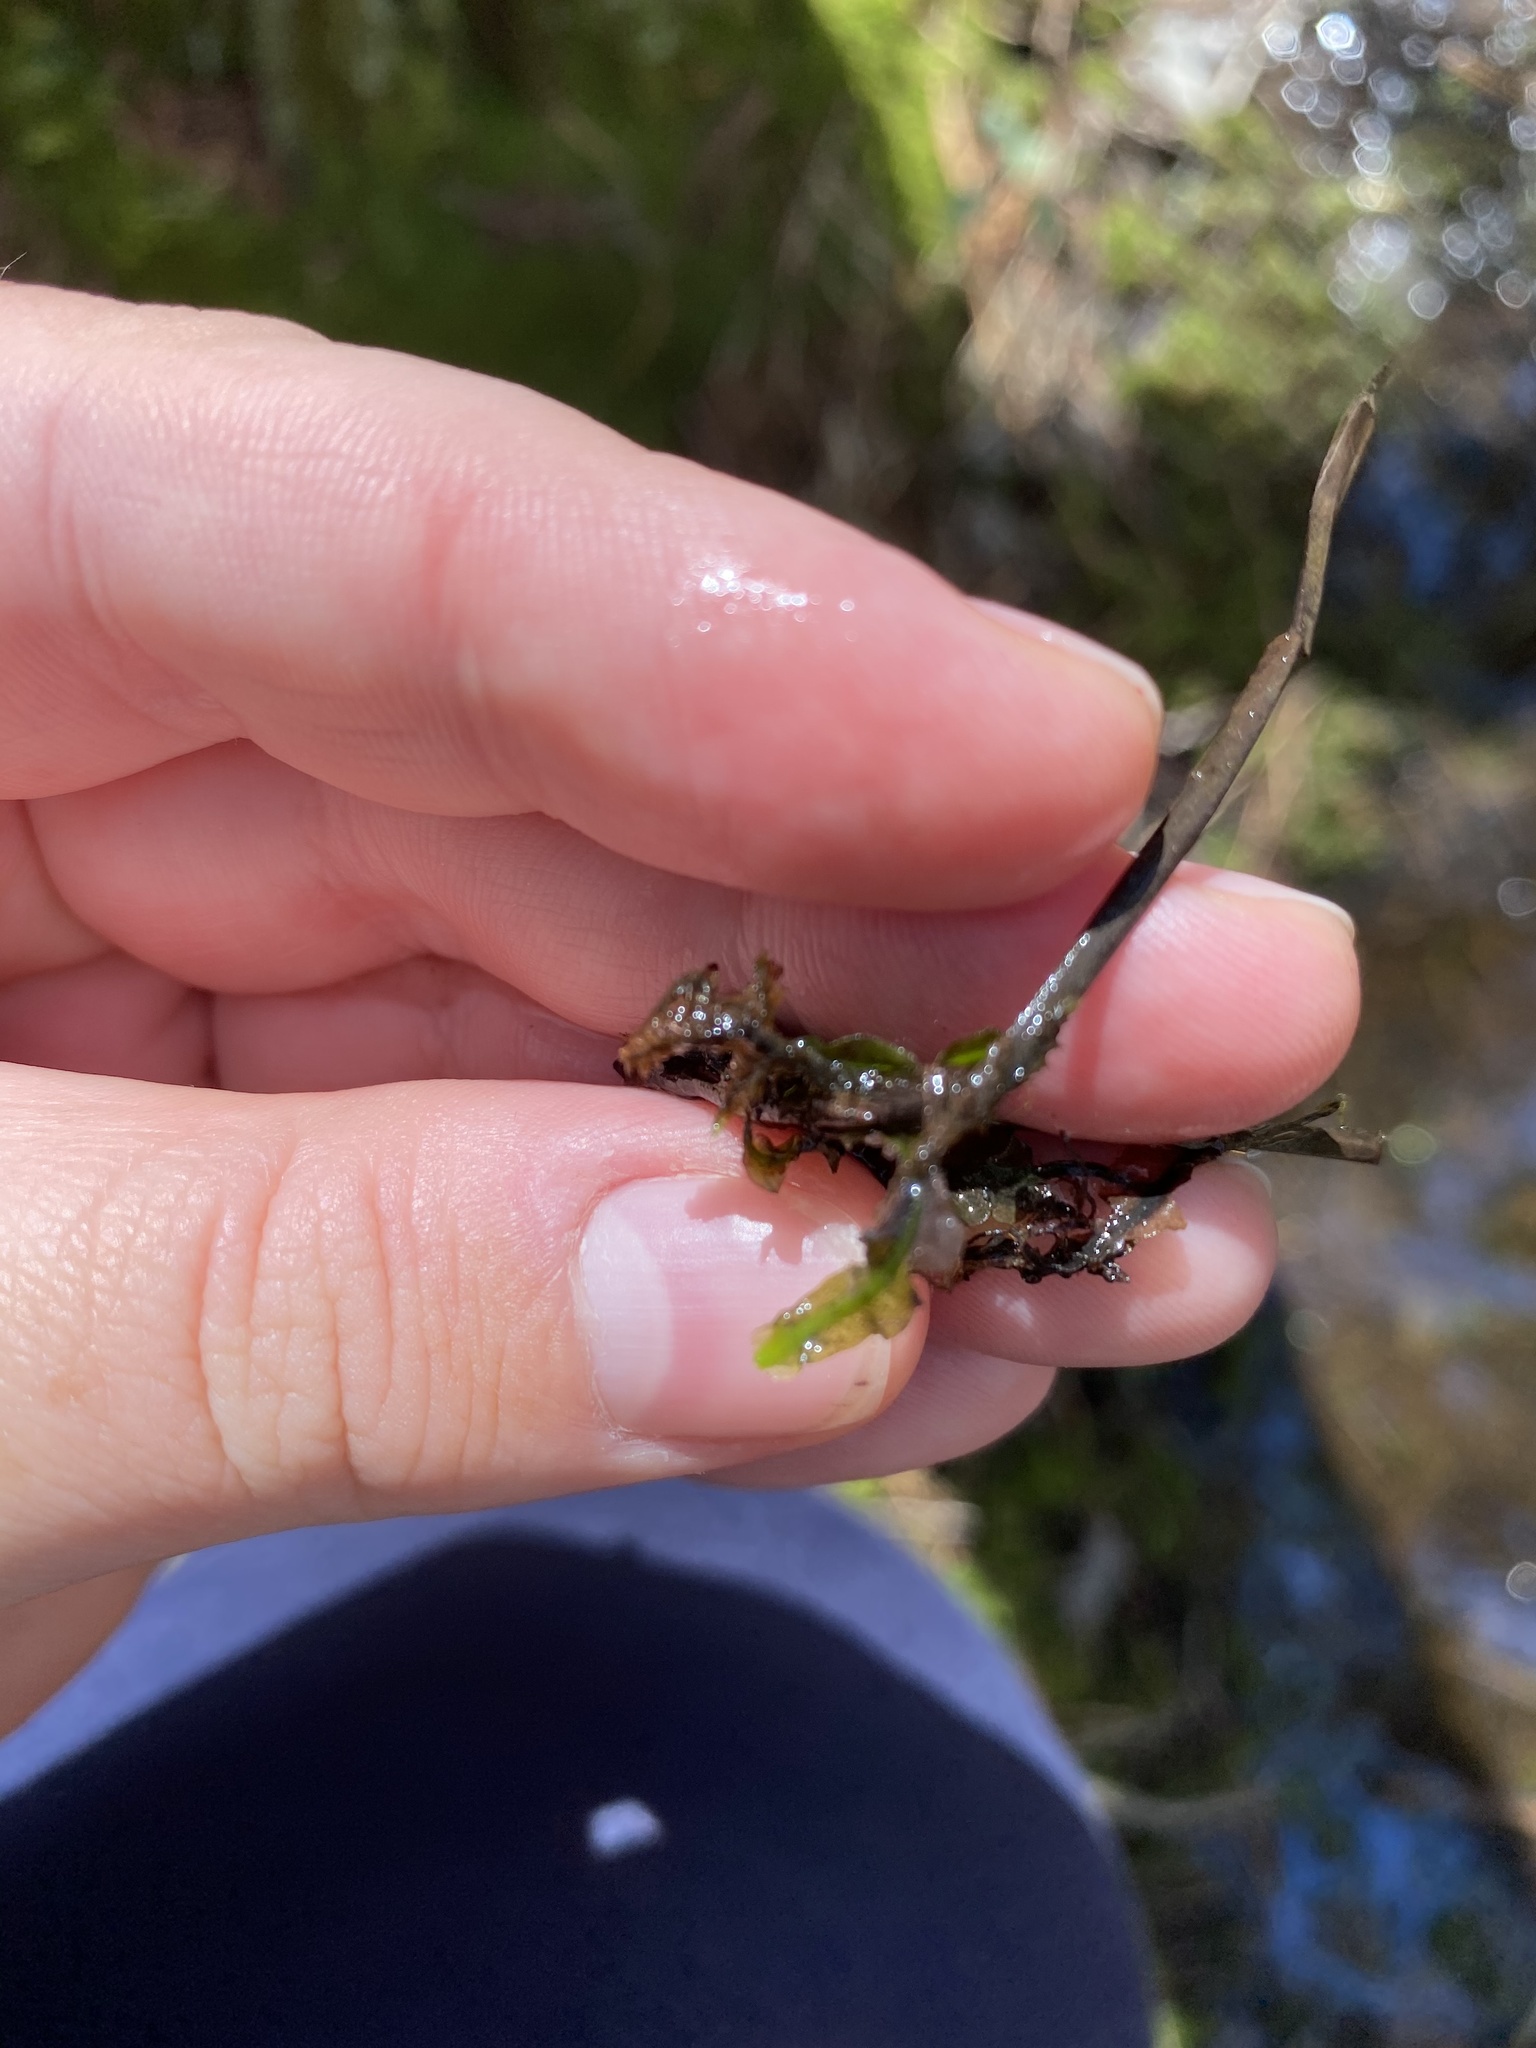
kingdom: Plantae
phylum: Marchantiophyta
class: Jungermanniopsida
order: Pallaviciniales
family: Pallaviciniaceae
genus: Pallavicinia
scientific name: Pallavicinia lyellii
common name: Veilwort
